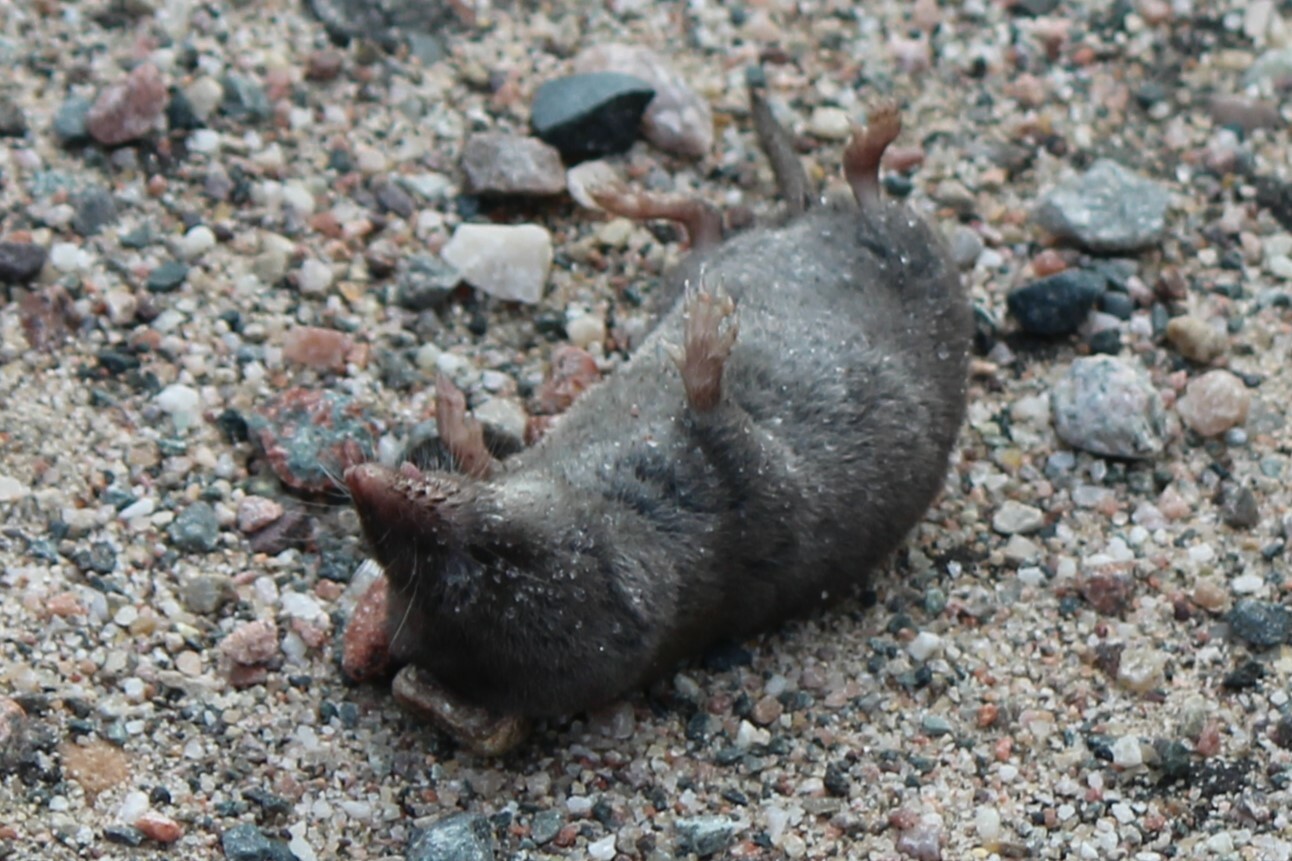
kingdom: Animalia
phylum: Chordata
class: Mammalia
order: Soricomorpha
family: Soricidae
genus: Blarina
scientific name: Blarina brevicauda
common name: Northern short-tailed shrew
